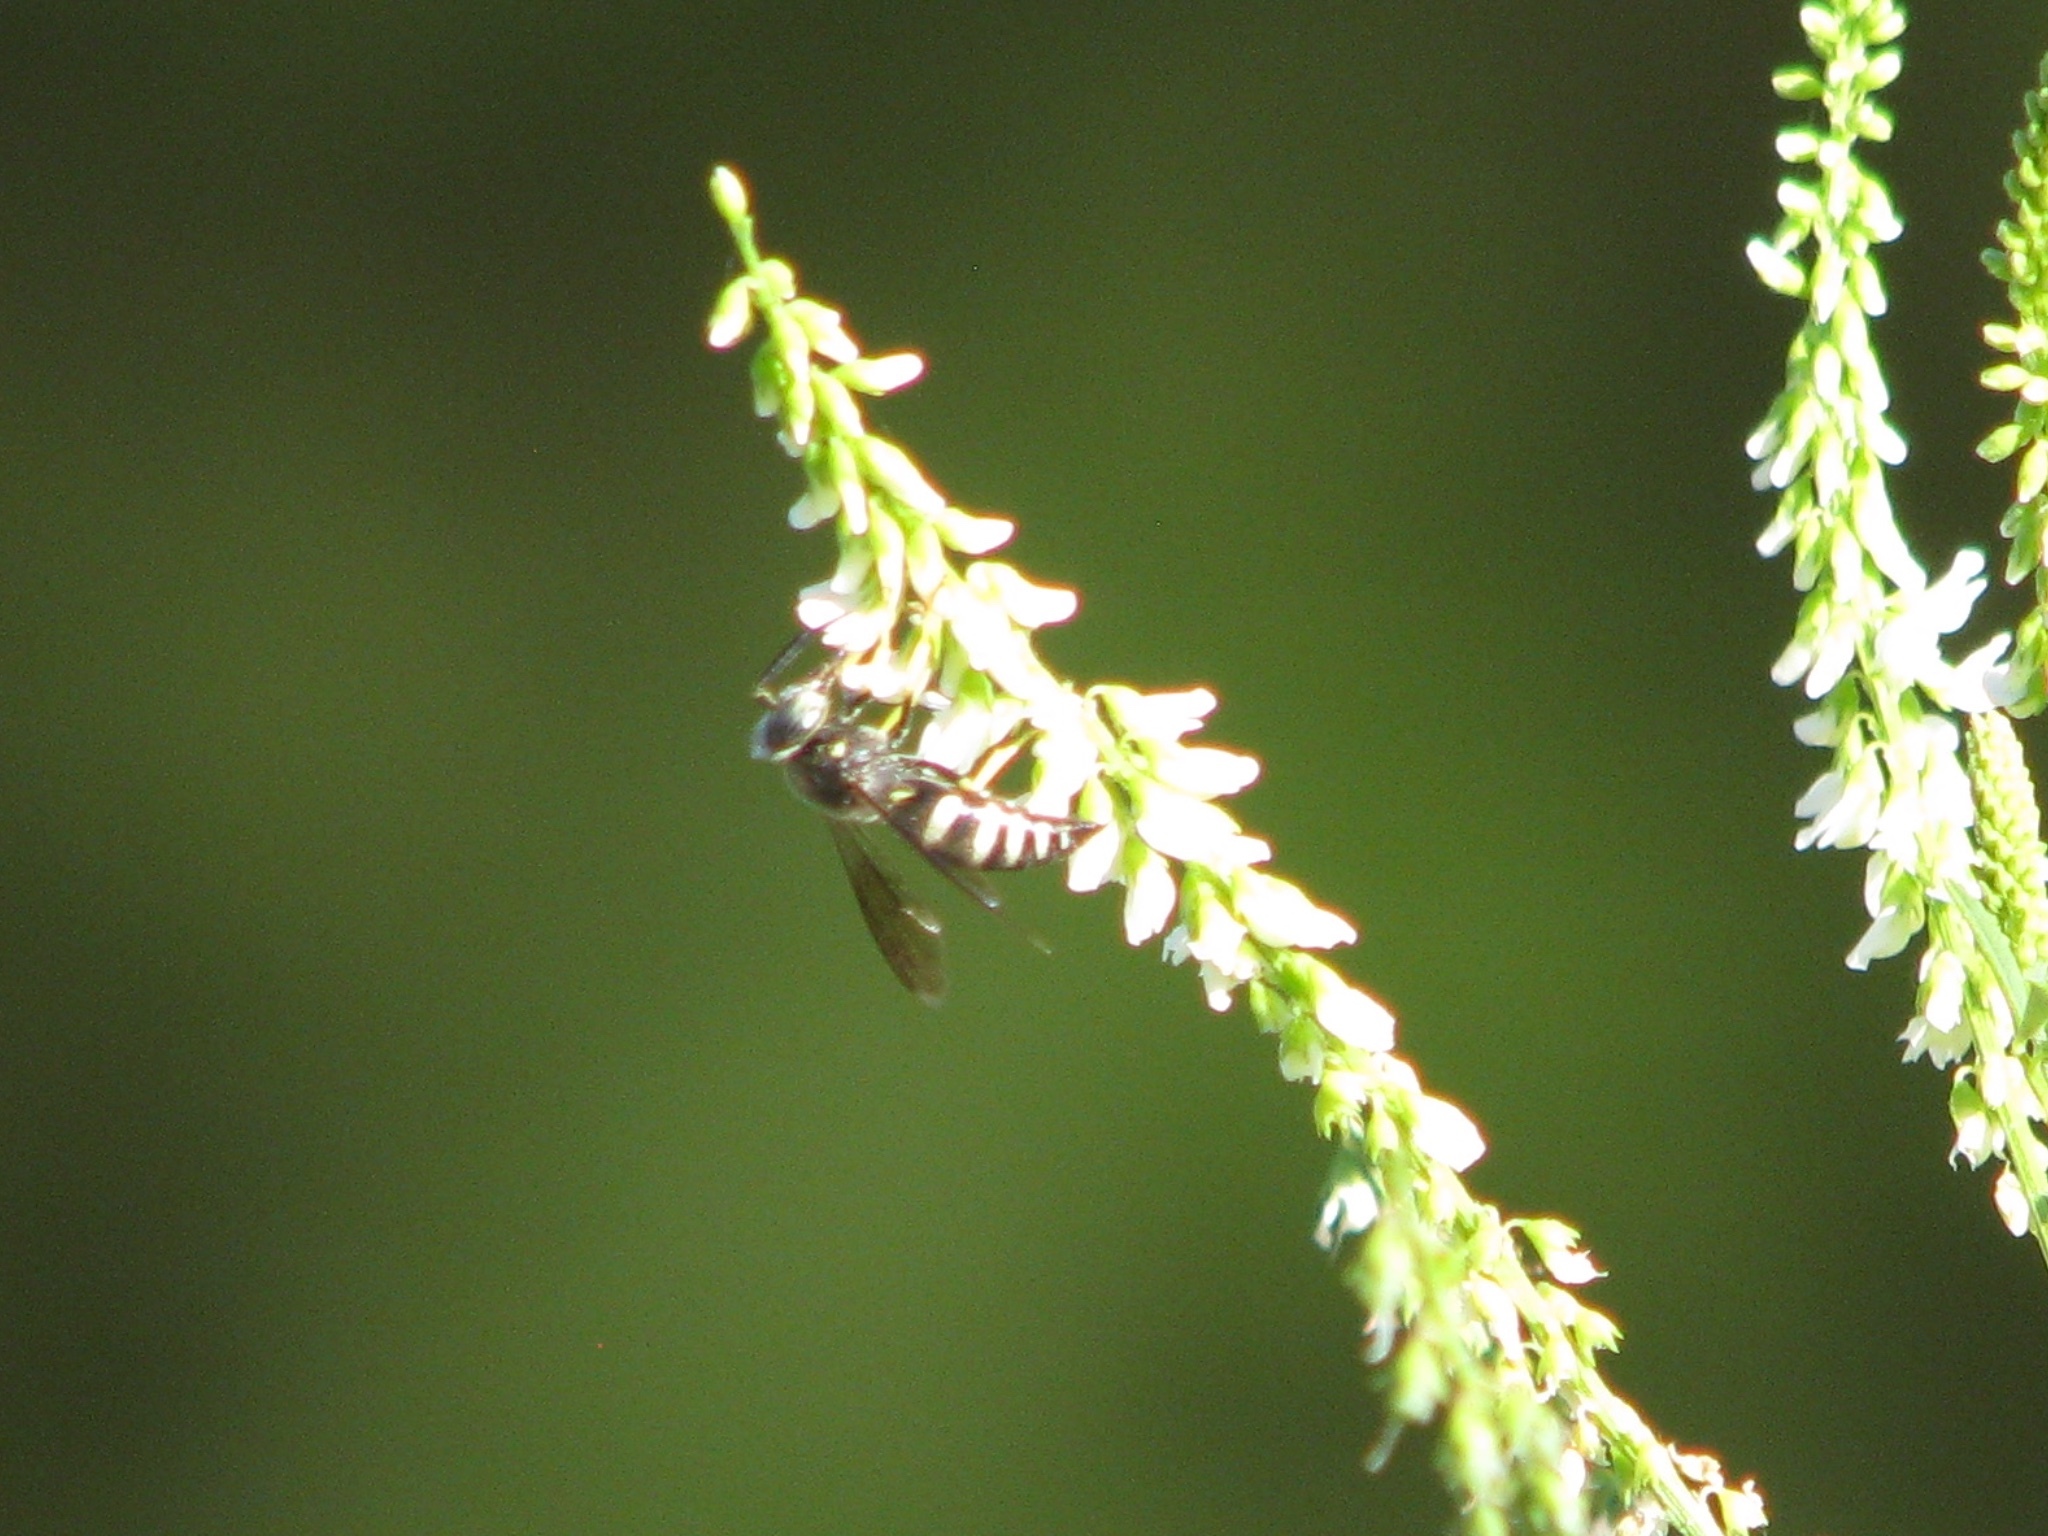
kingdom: Animalia
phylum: Arthropoda
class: Insecta
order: Hymenoptera
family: Crabronidae
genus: Bicyrtes
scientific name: Bicyrtes quadrifasciatus
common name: Four-banded stink bug hunter wasp
